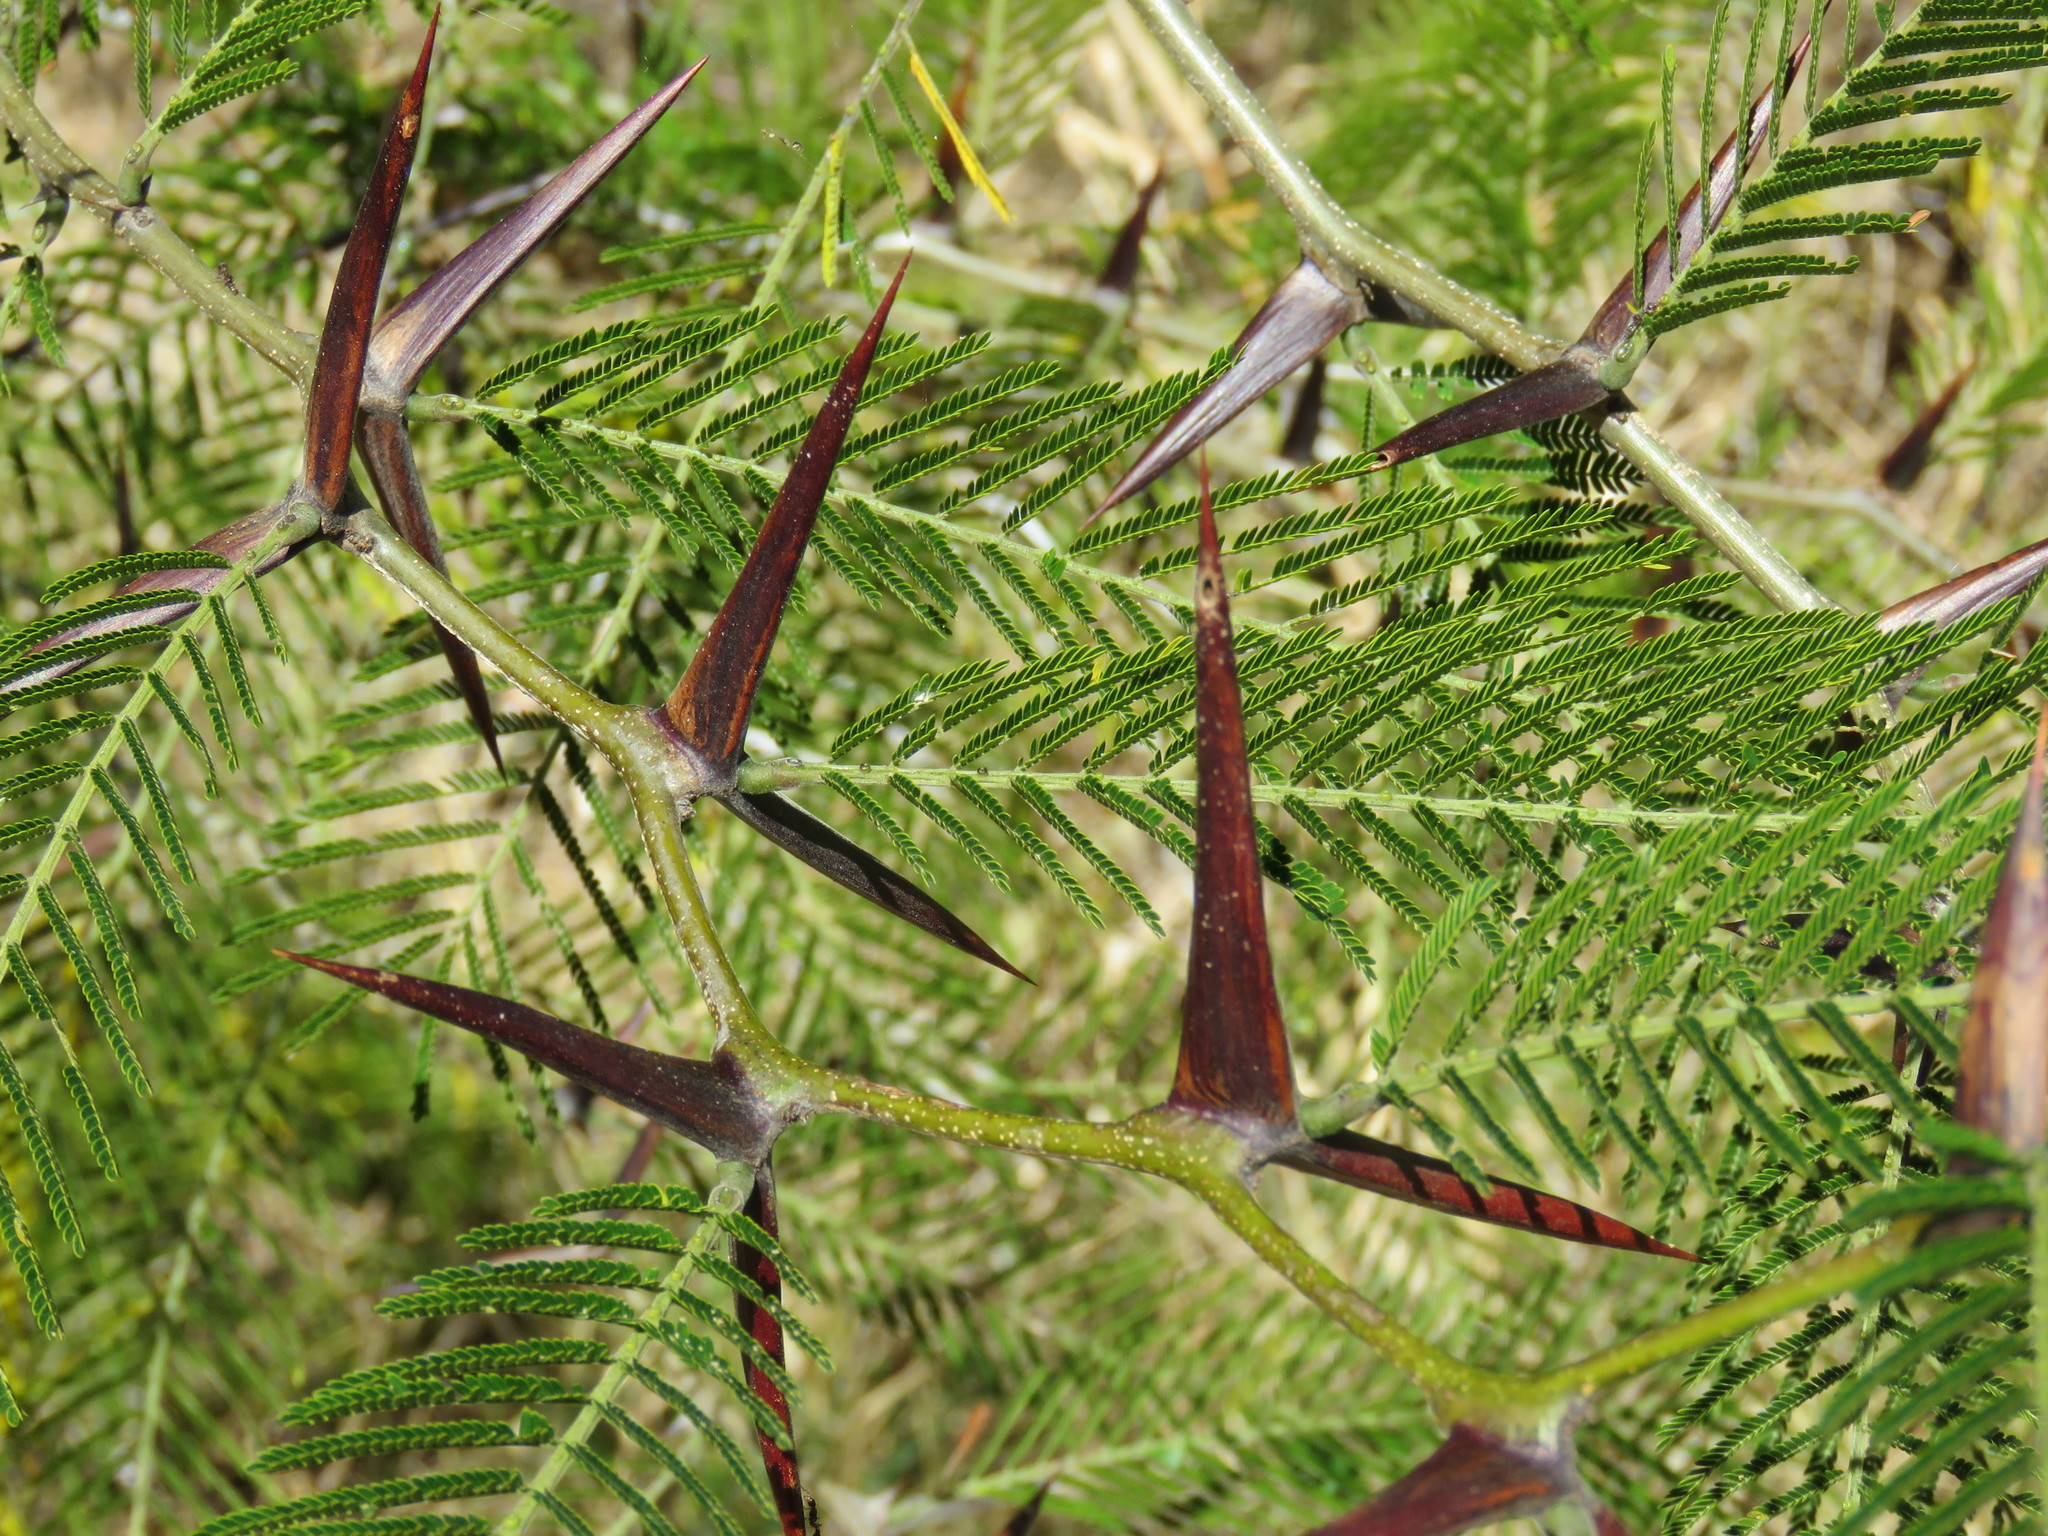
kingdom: Plantae
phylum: Tracheophyta
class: Magnoliopsida
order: Fabales
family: Fabaceae
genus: Vachellia
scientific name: Vachellia campechiana
